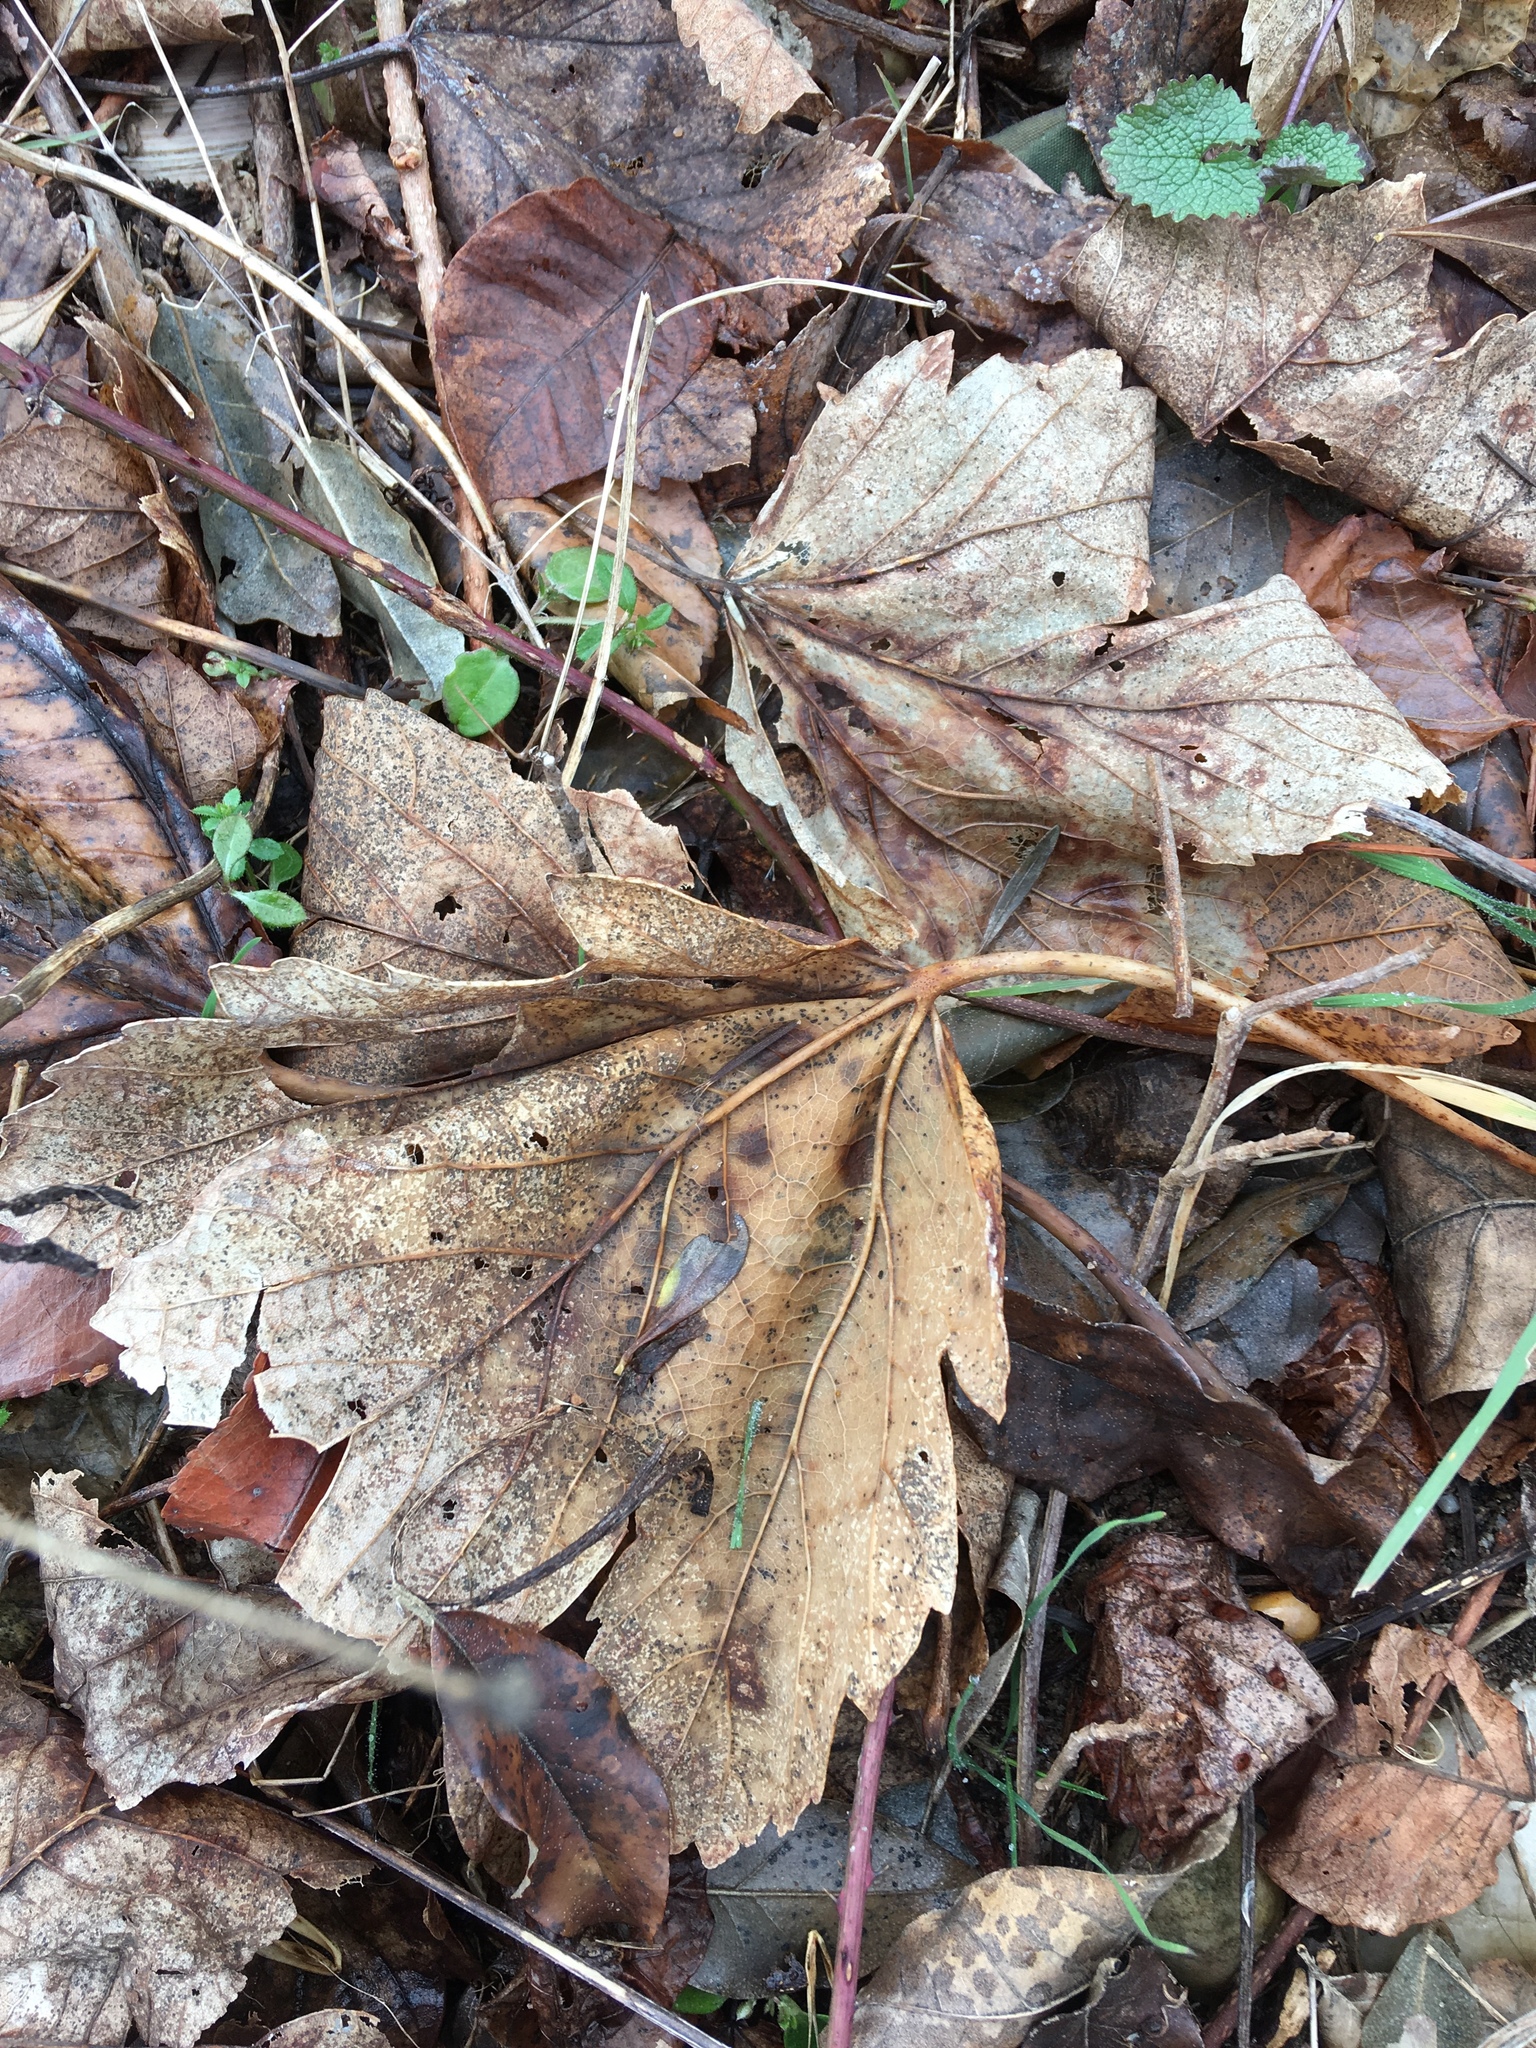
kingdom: Plantae
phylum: Tracheophyta
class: Magnoliopsida
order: Sapindales
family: Sapindaceae
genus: Acer
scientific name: Acer pseudoplatanus
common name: Sycamore
